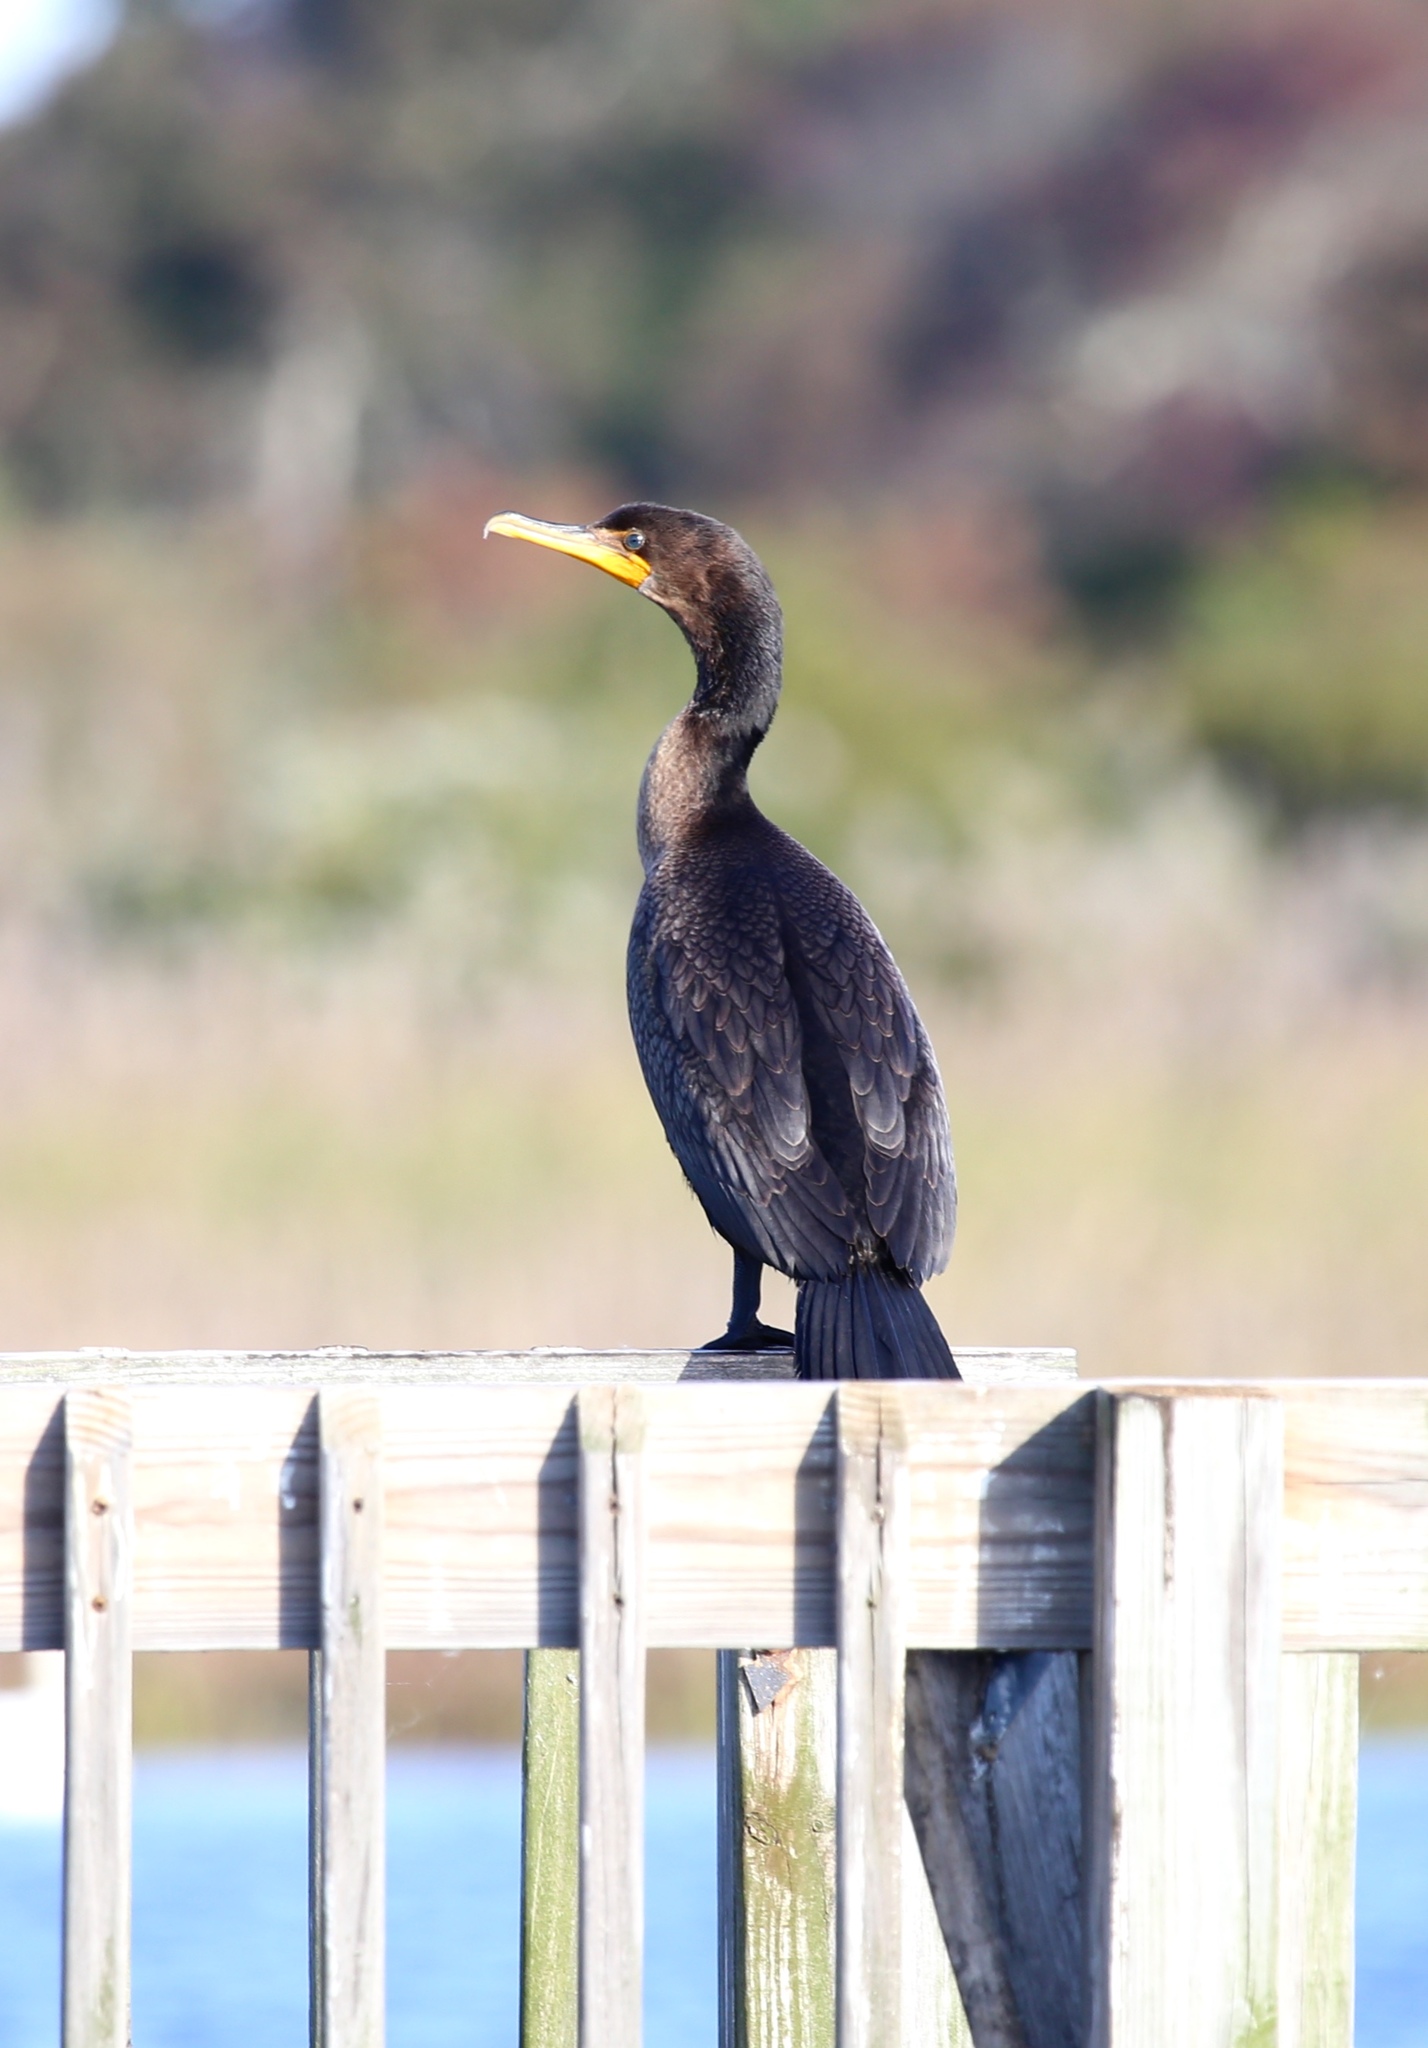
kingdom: Animalia
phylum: Chordata
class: Aves
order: Suliformes
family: Phalacrocoracidae
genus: Phalacrocorax
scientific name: Phalacrocorax auritus
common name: Double-crested cormorant
